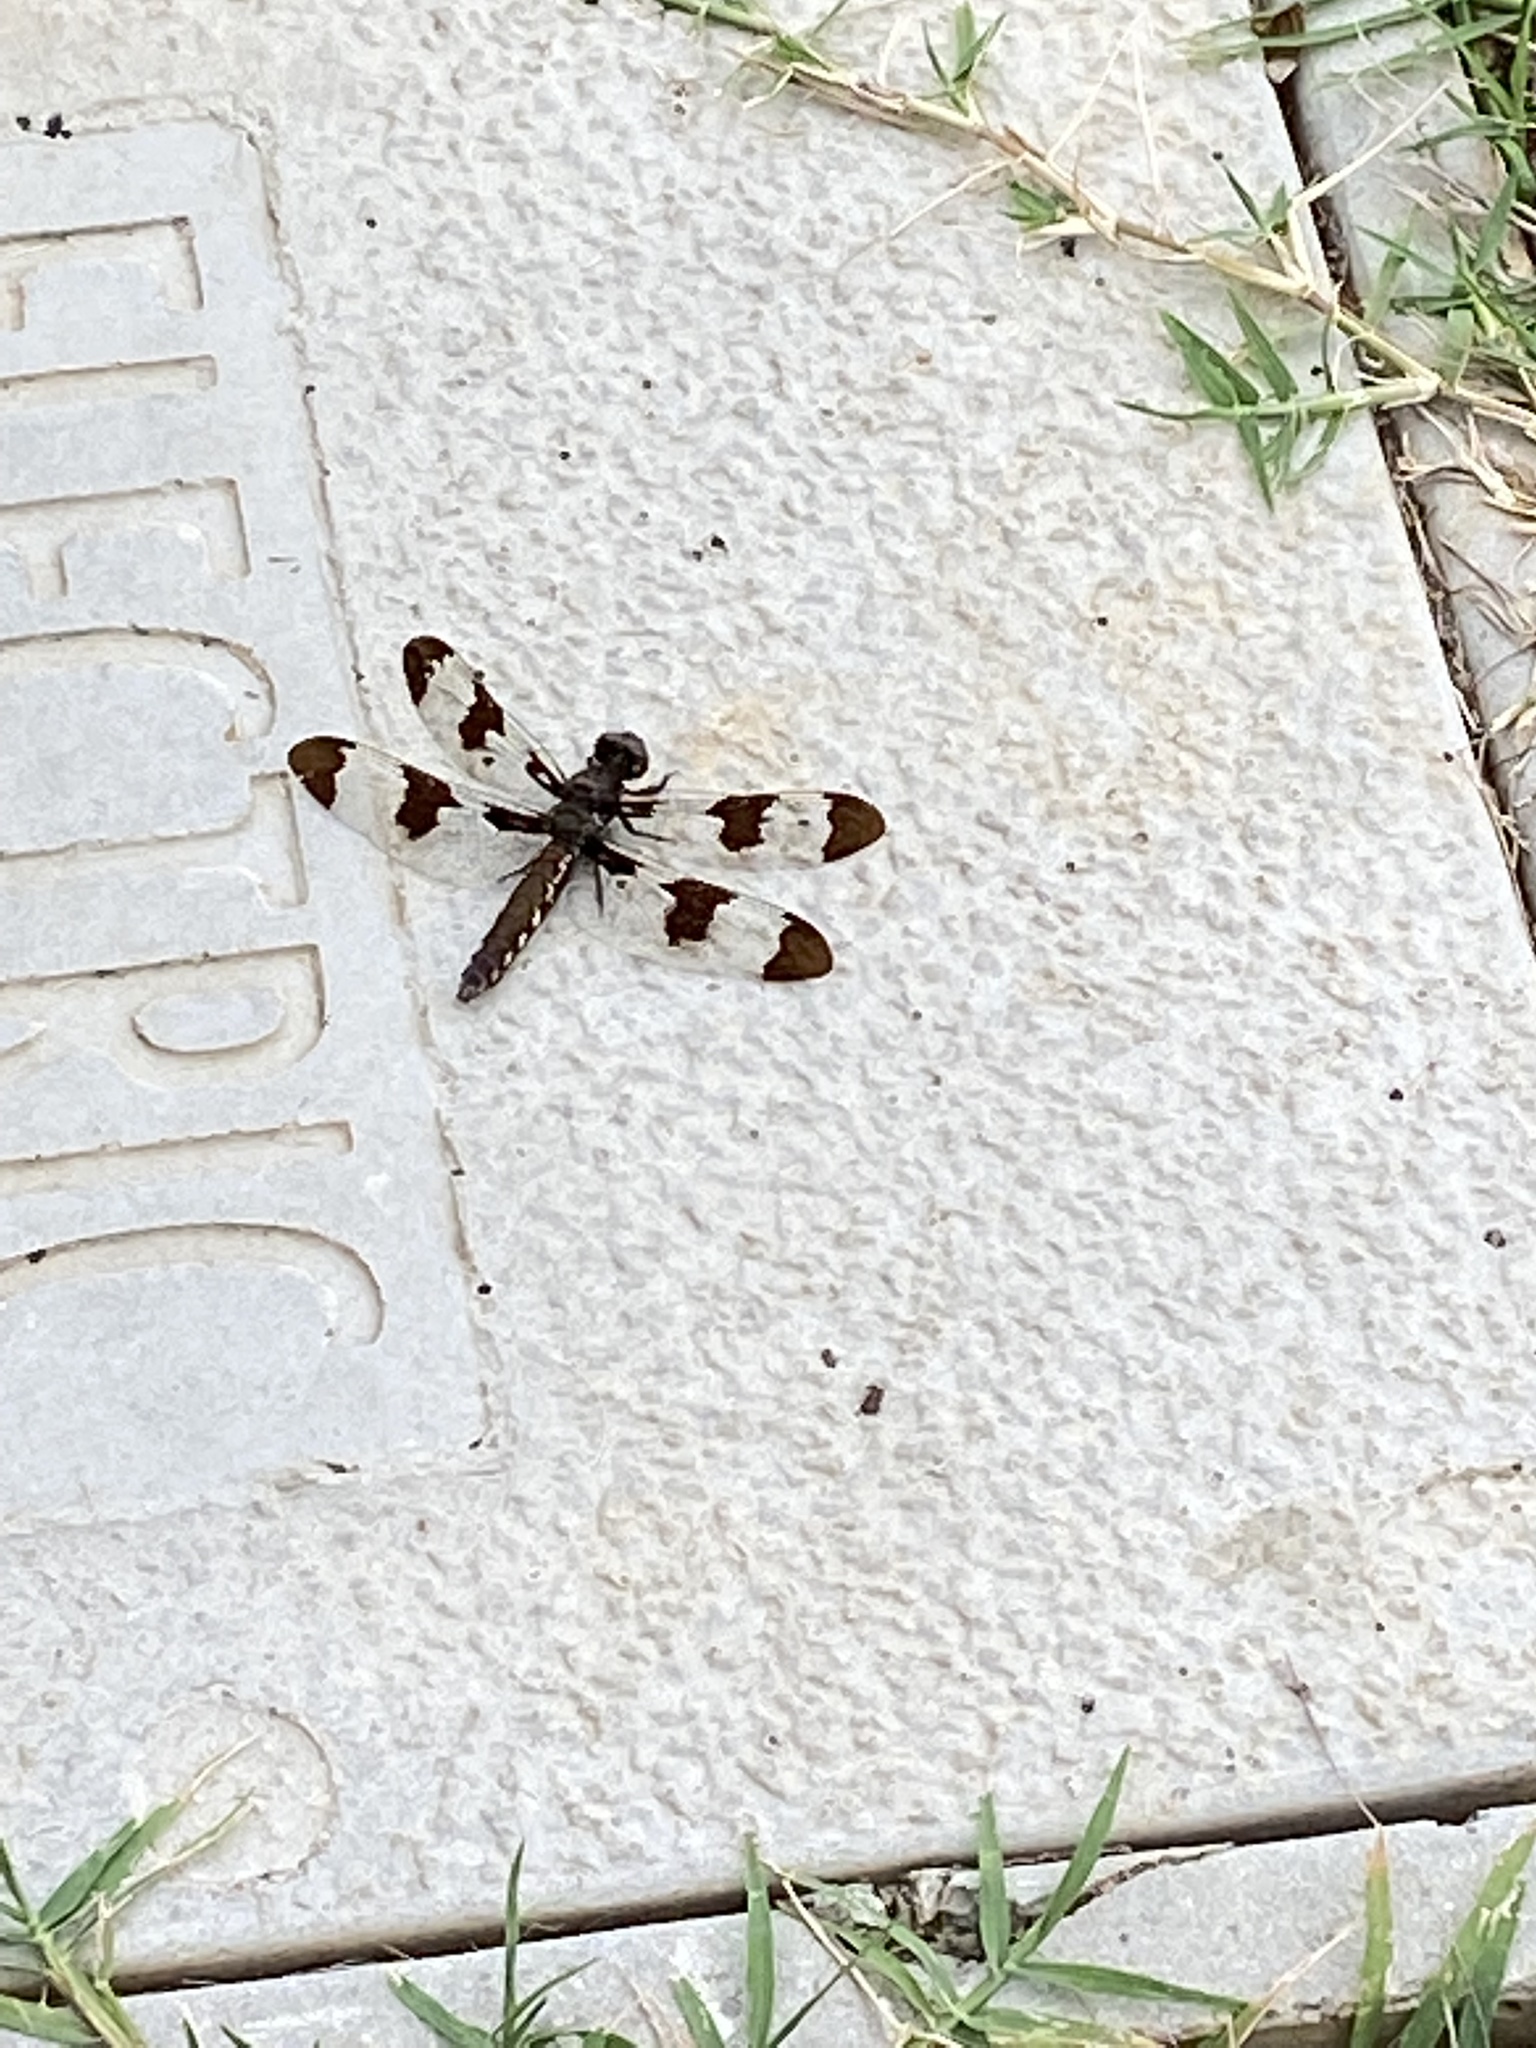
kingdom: Animalia
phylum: Arthropoda
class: Insecta
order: Odonata
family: Libellulidae
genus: Plathemis
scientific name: Plathemis lydia
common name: Common whitetail
